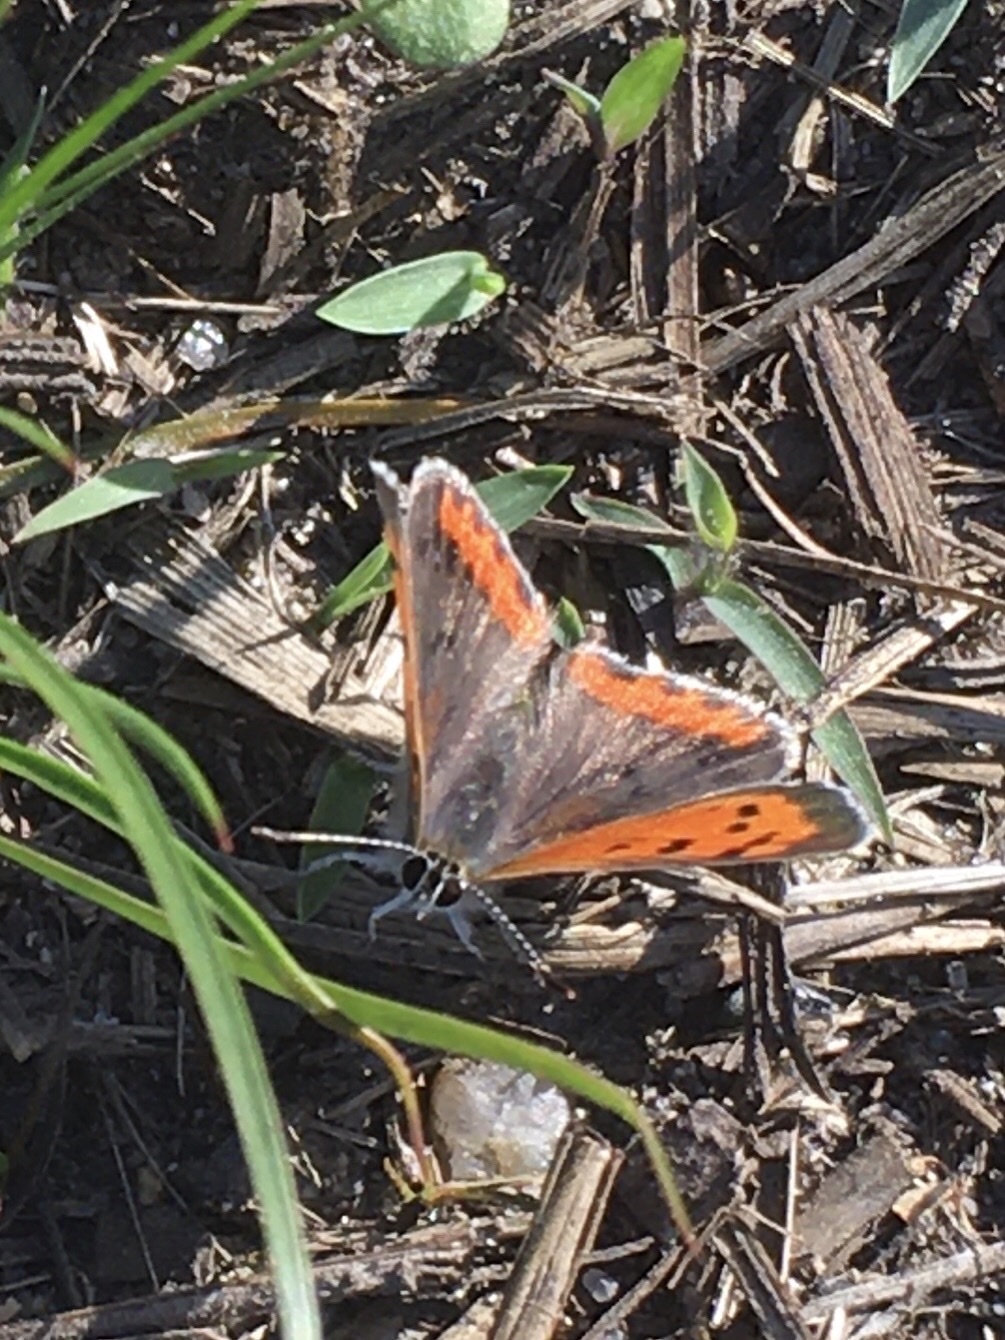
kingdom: Animalia
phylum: Arthropoda
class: Insecta
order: Lepidoptera
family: Lycaenidae
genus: Lycaena
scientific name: Lycaena hypophlaeas
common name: American copper
